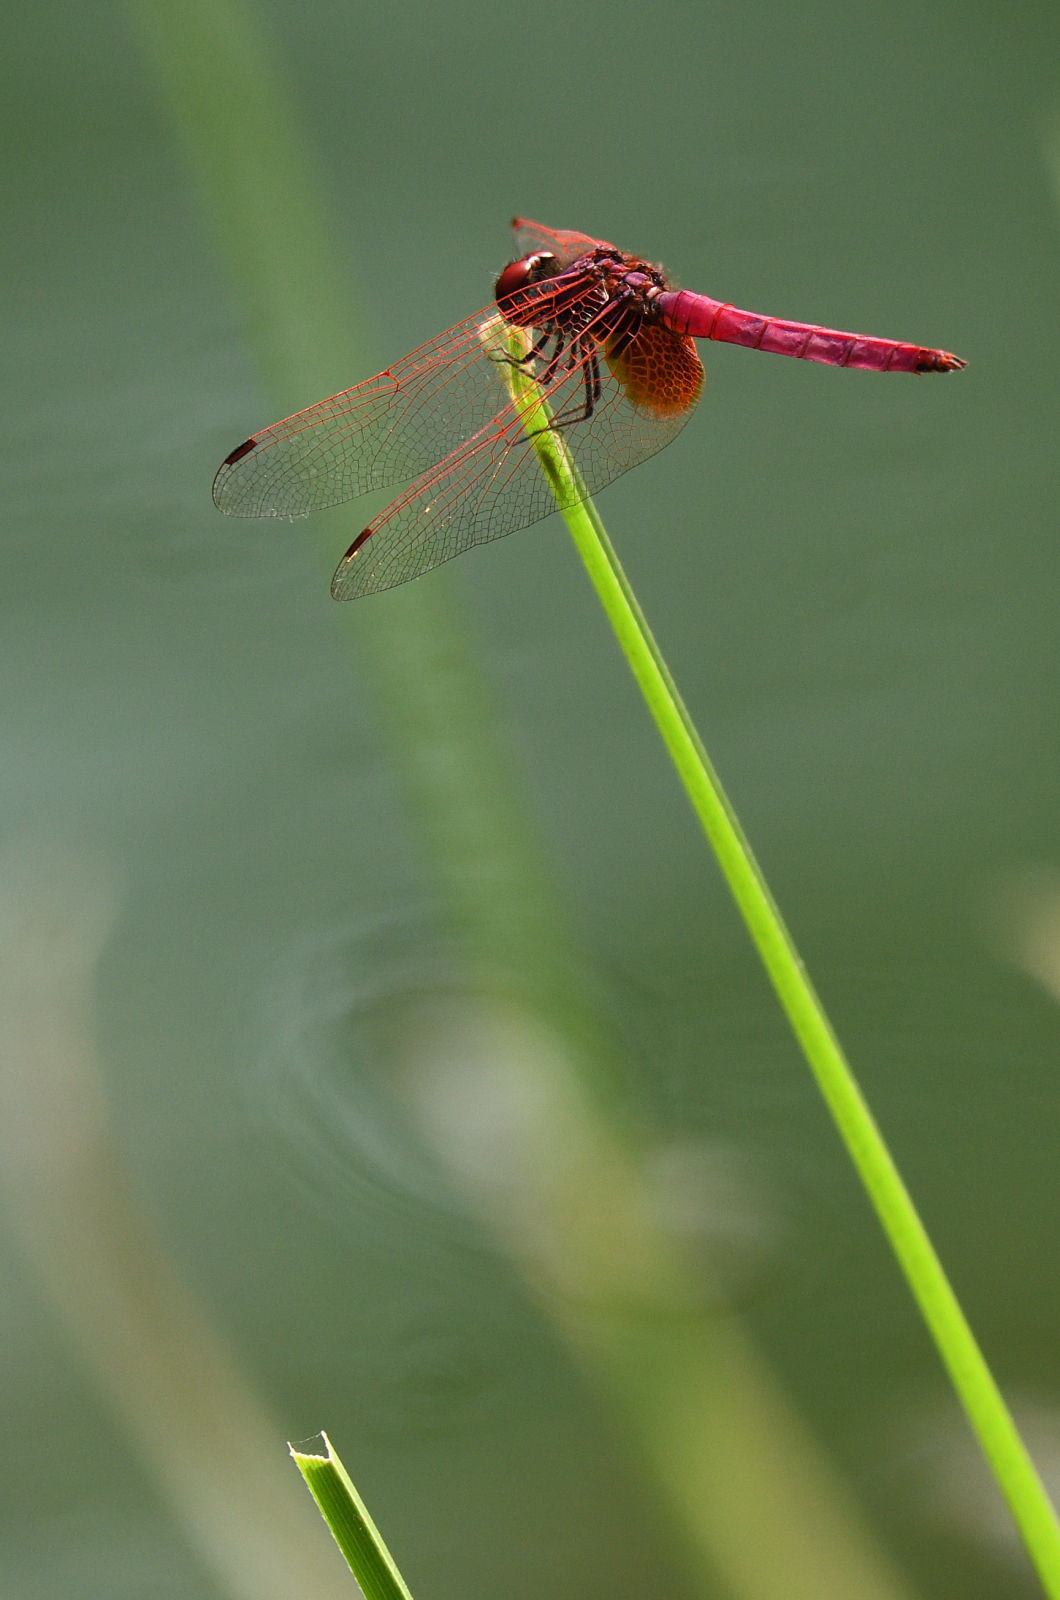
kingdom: Animalia
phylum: Arthropoda
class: Insecta
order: Odonata
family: Libellulidae
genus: Trithemis
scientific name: Trithemis aurora
